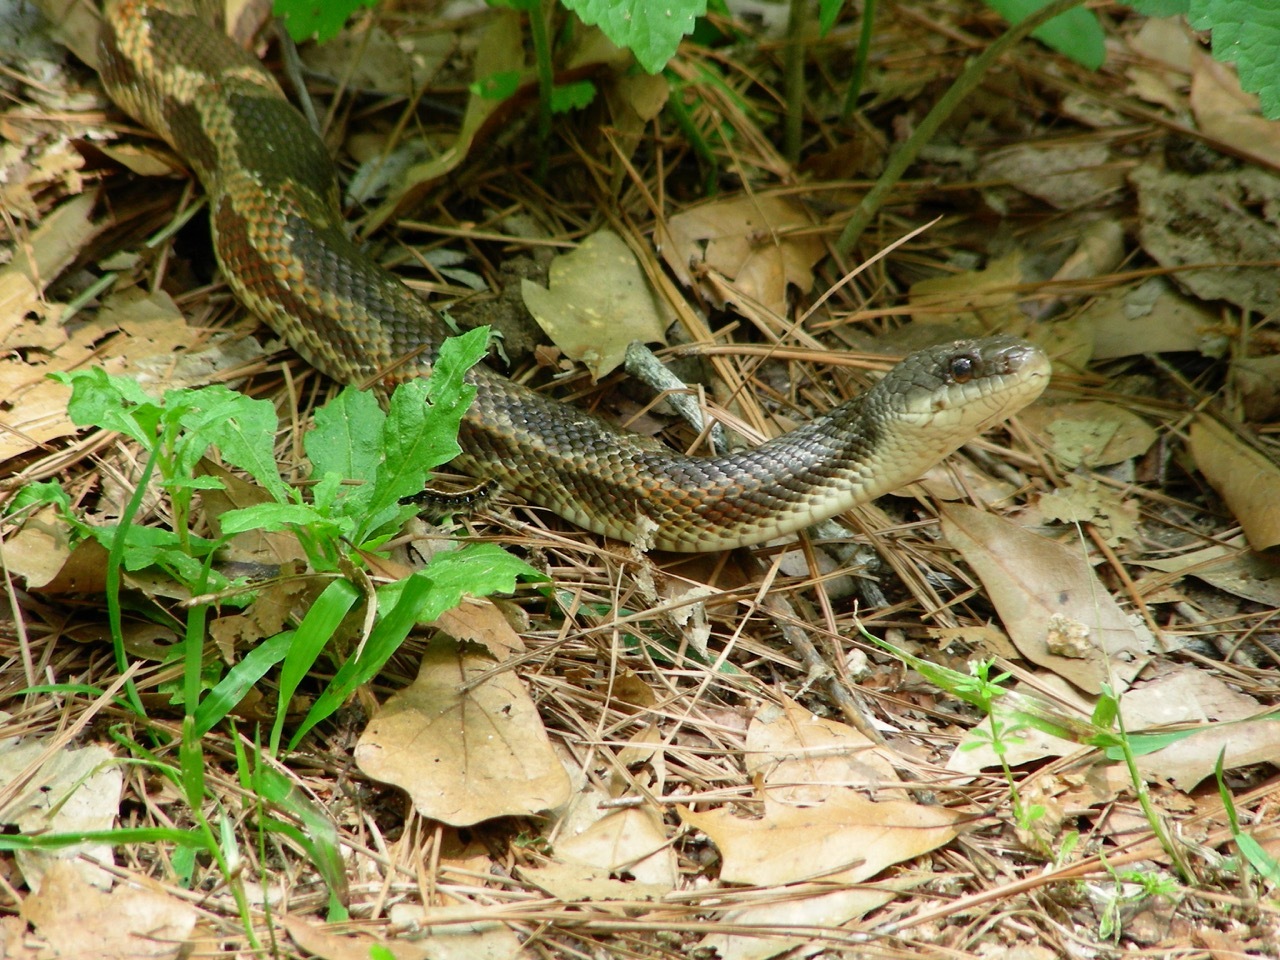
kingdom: Animalia
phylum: Chordata
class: Squamata
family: Colubridae
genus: Pantherophis
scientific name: Pantherophis obsoletus
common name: Black rat snake
